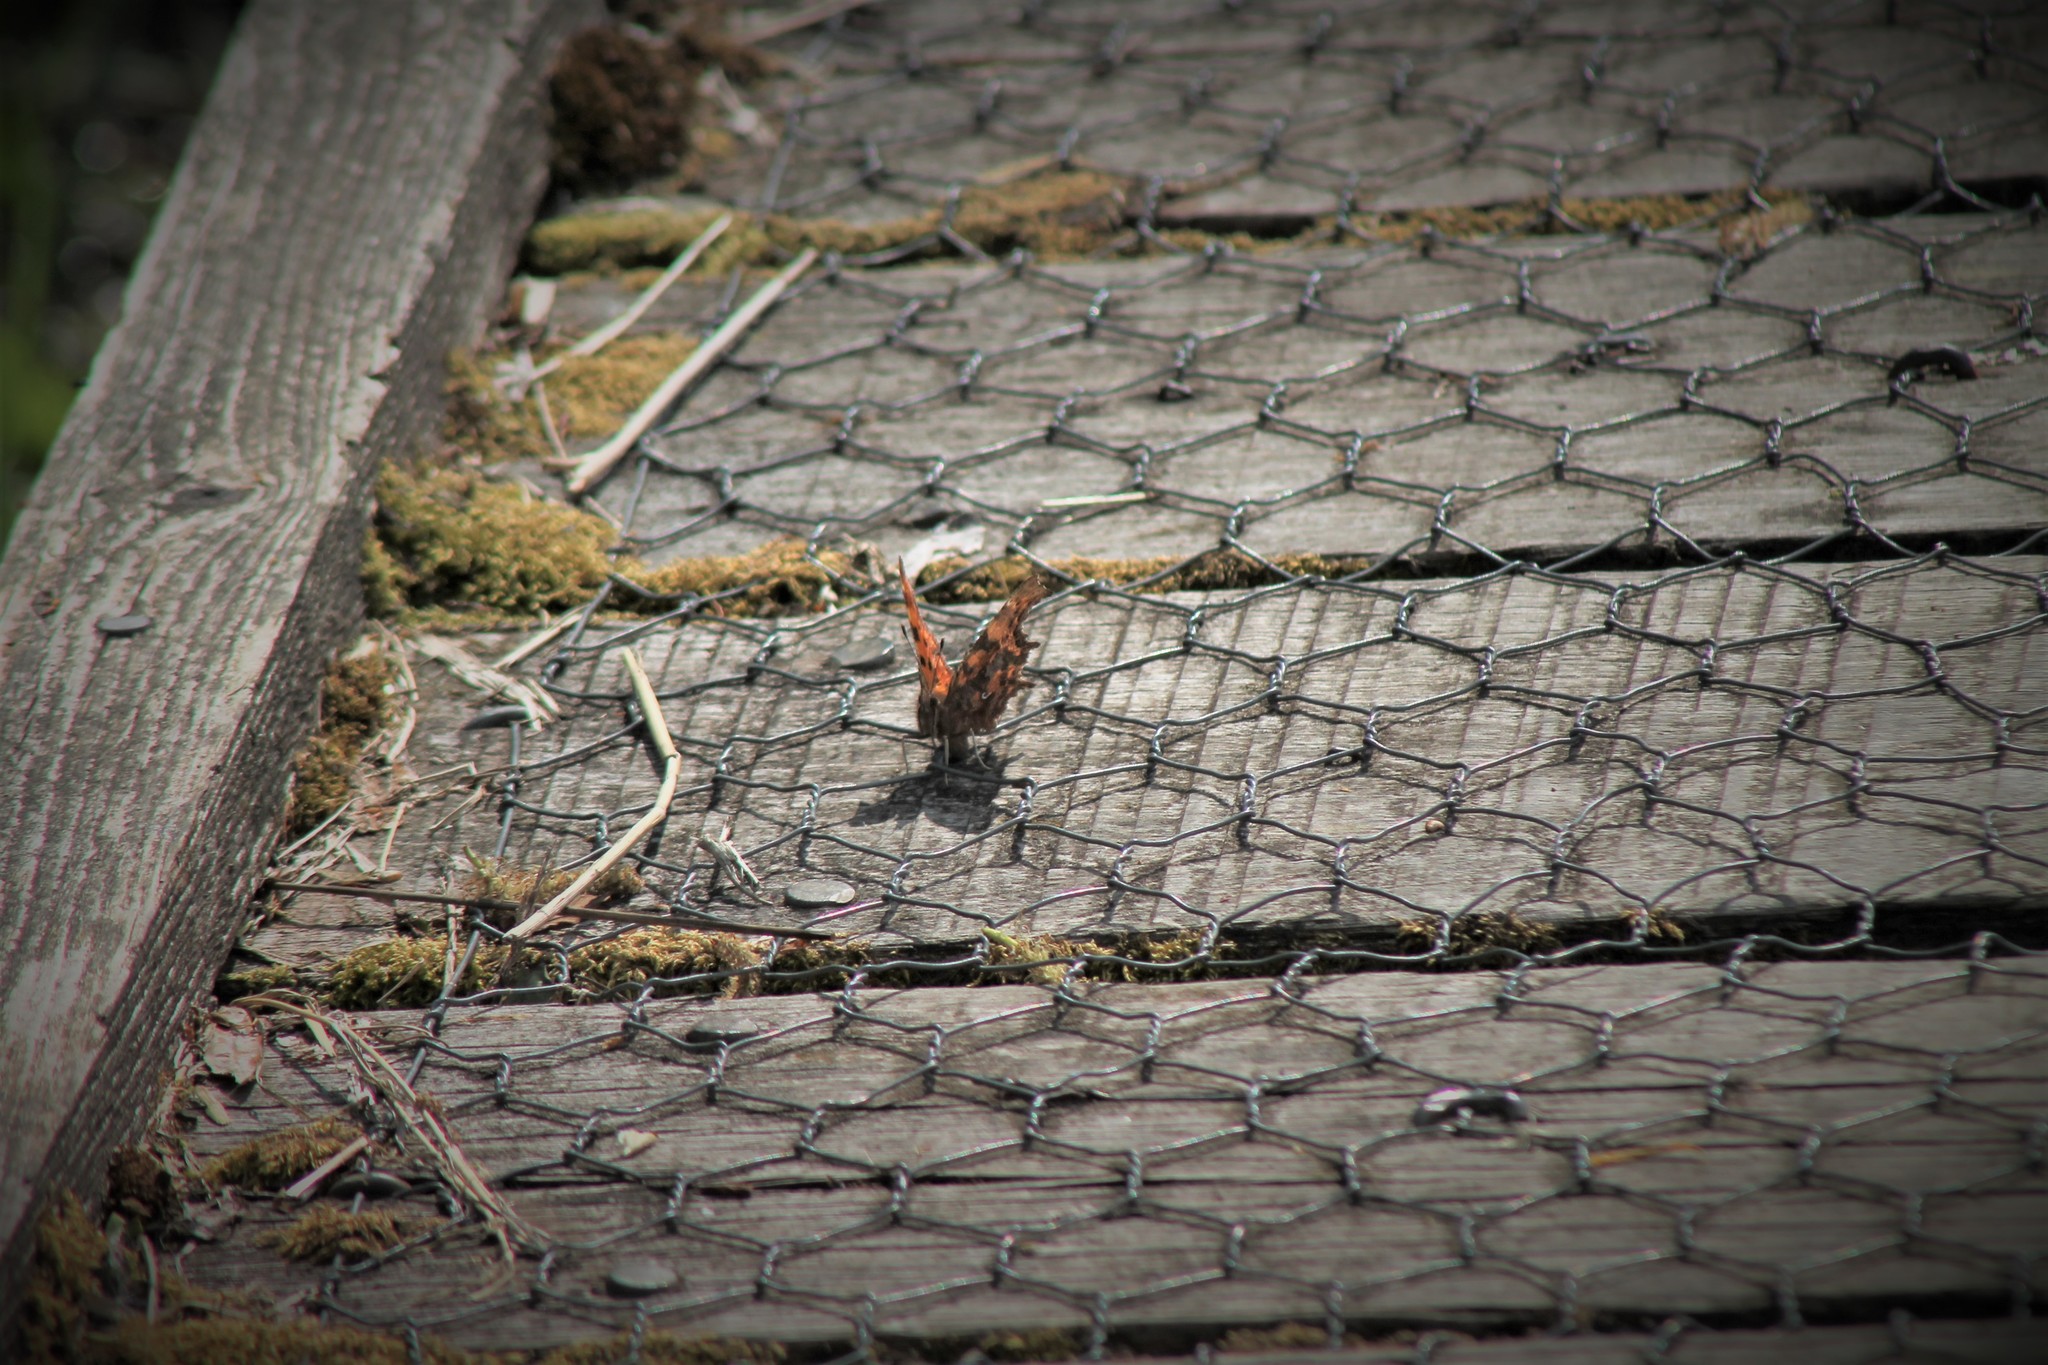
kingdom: Animalia
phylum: Arthropoda
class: Insecta
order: Lepidoptera
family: Nymphalidae
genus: Polygonia
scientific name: Polygonia c-album
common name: Comma
